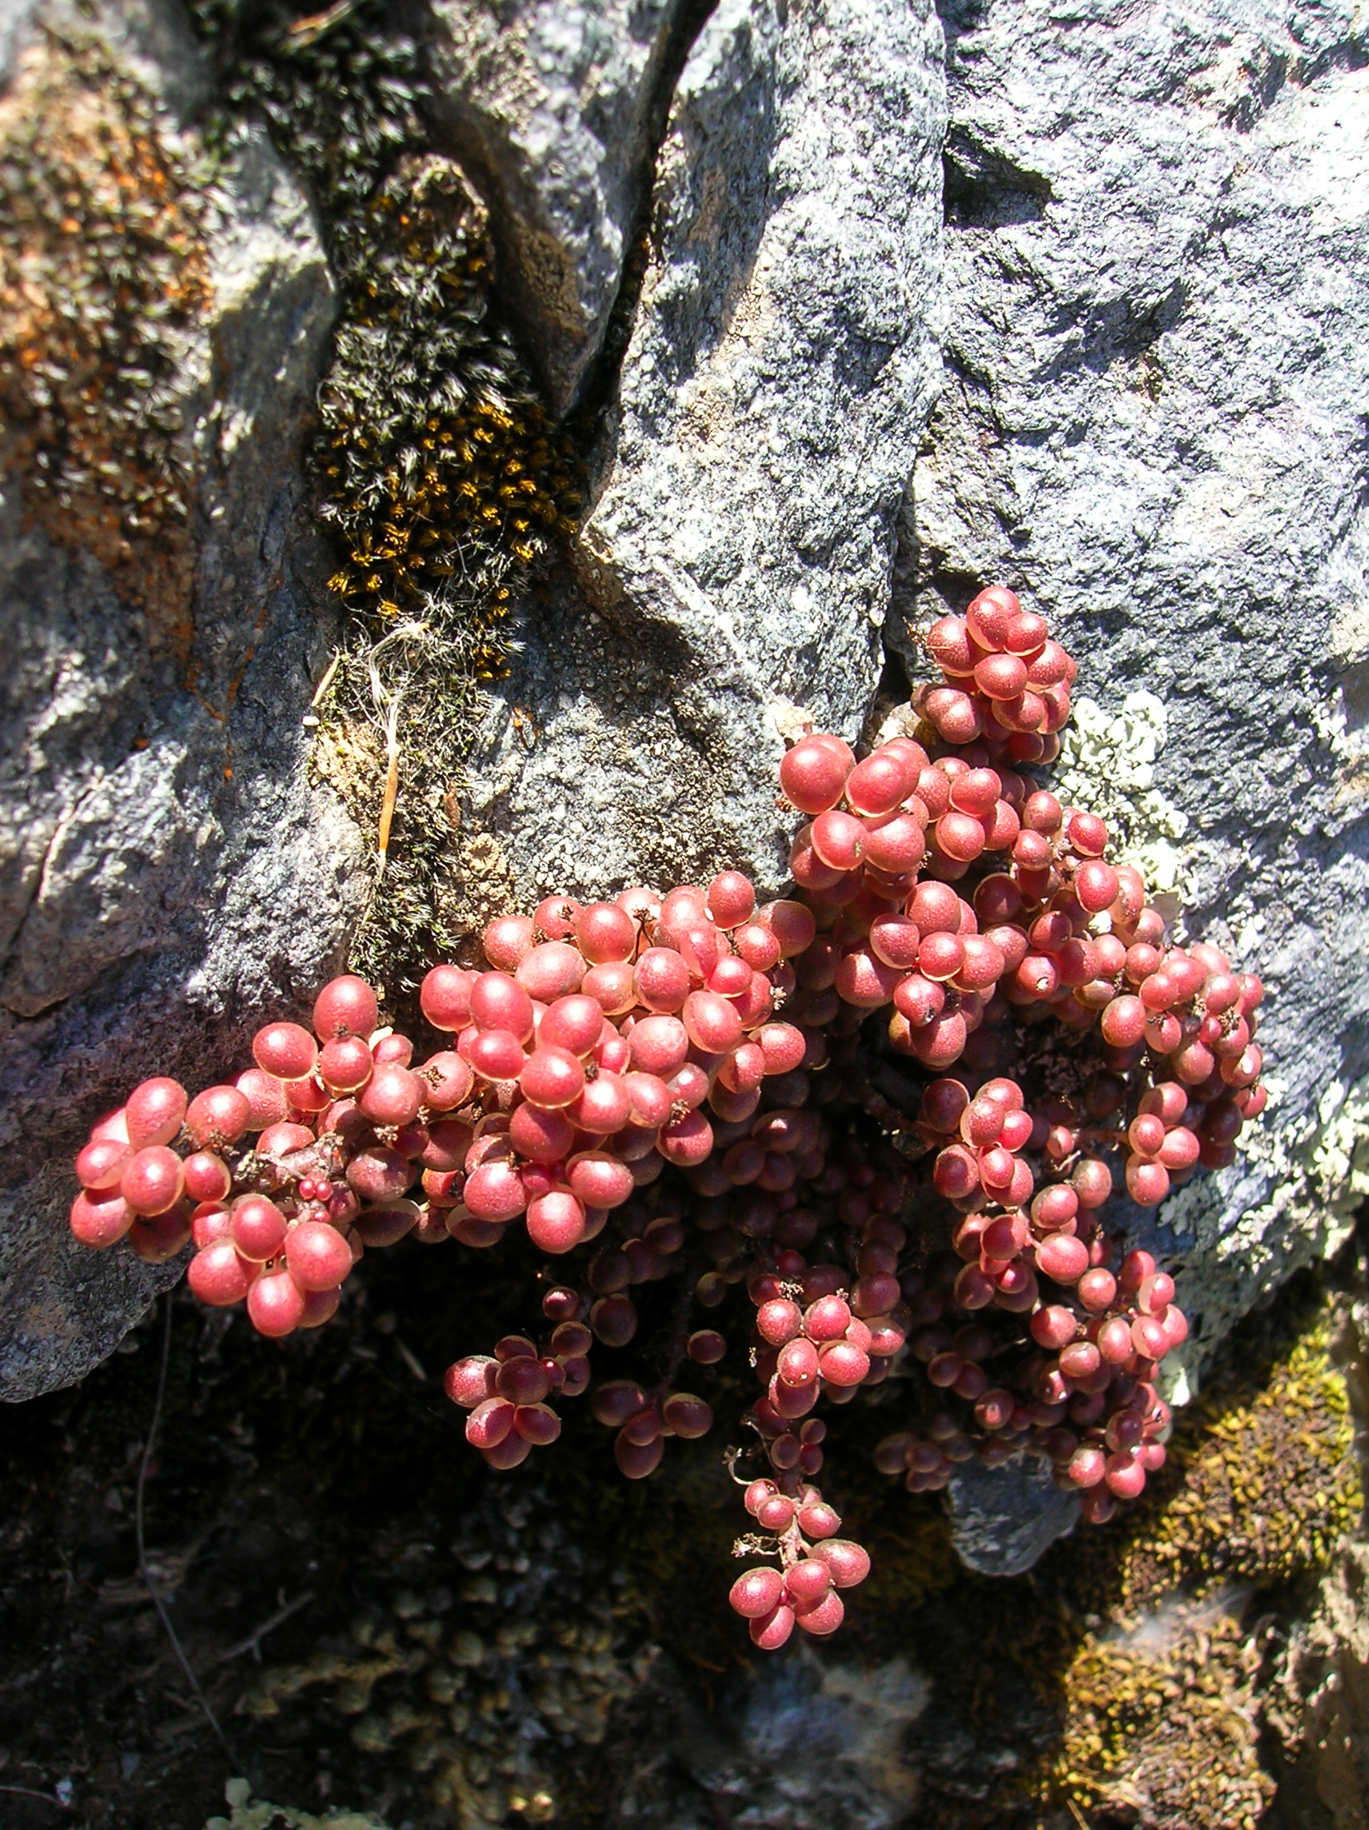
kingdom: Plantae
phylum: Tracheophyta
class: Magnoliopsida
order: Rosales
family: Urticaceae
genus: Pilea
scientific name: Pilea serpyllacea
